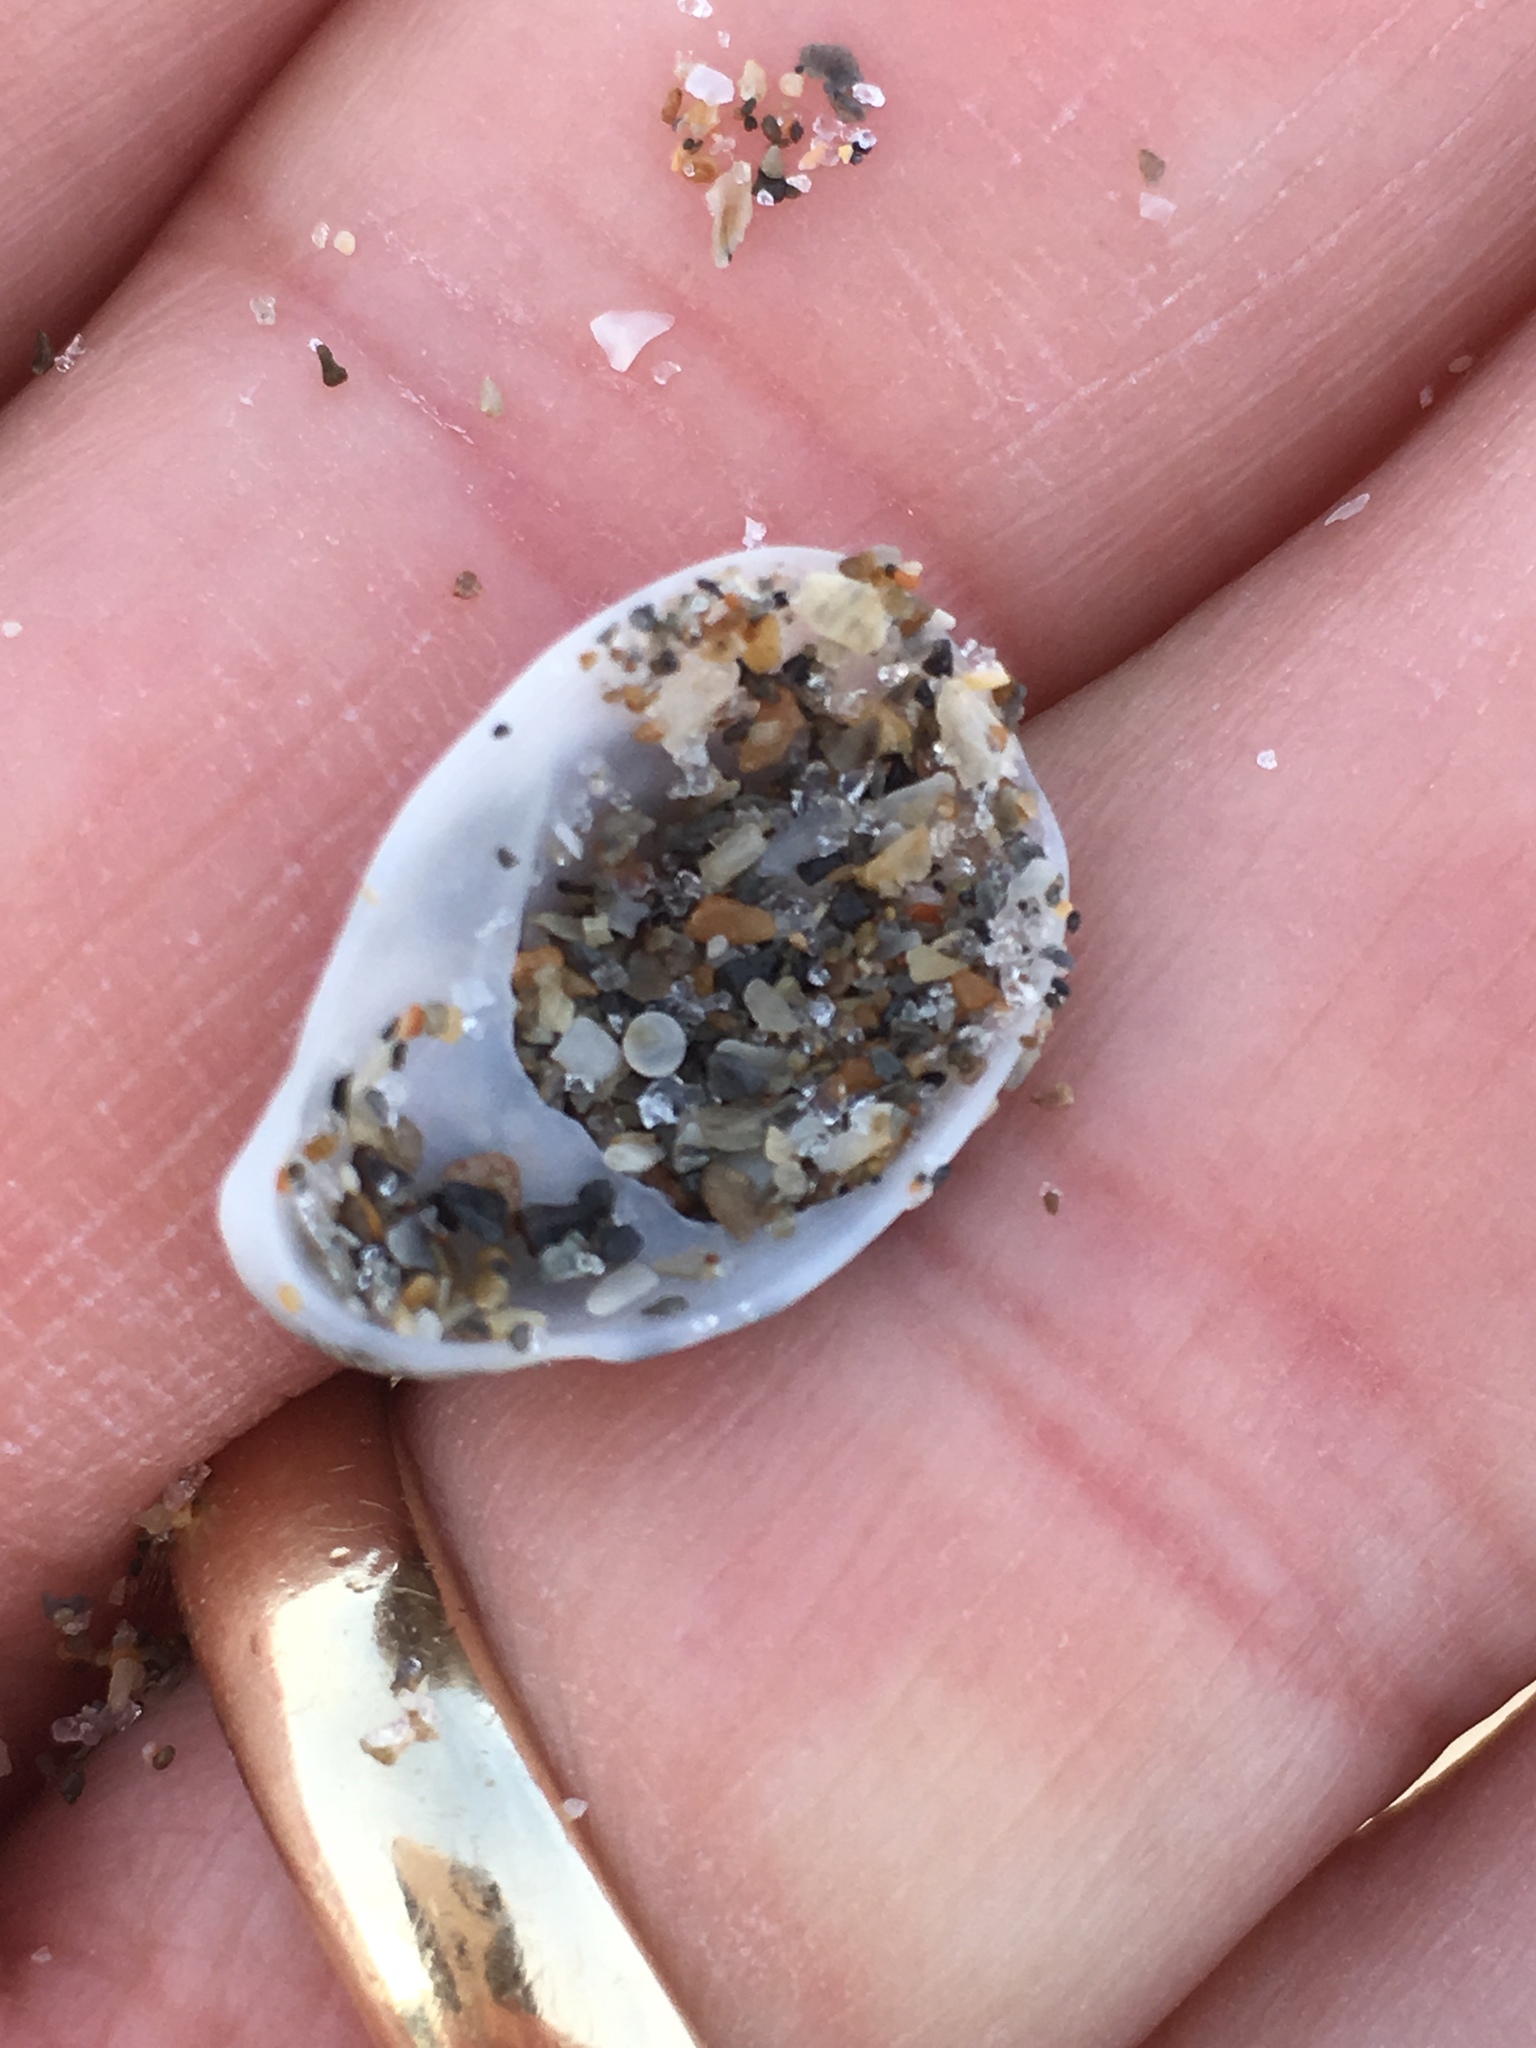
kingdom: Animalia
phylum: Mollusca
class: Gastropoda
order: Littorinimorpha
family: Calyptraeidae
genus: Crepidula
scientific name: Crepidula fornicata
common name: Slipper limpet
